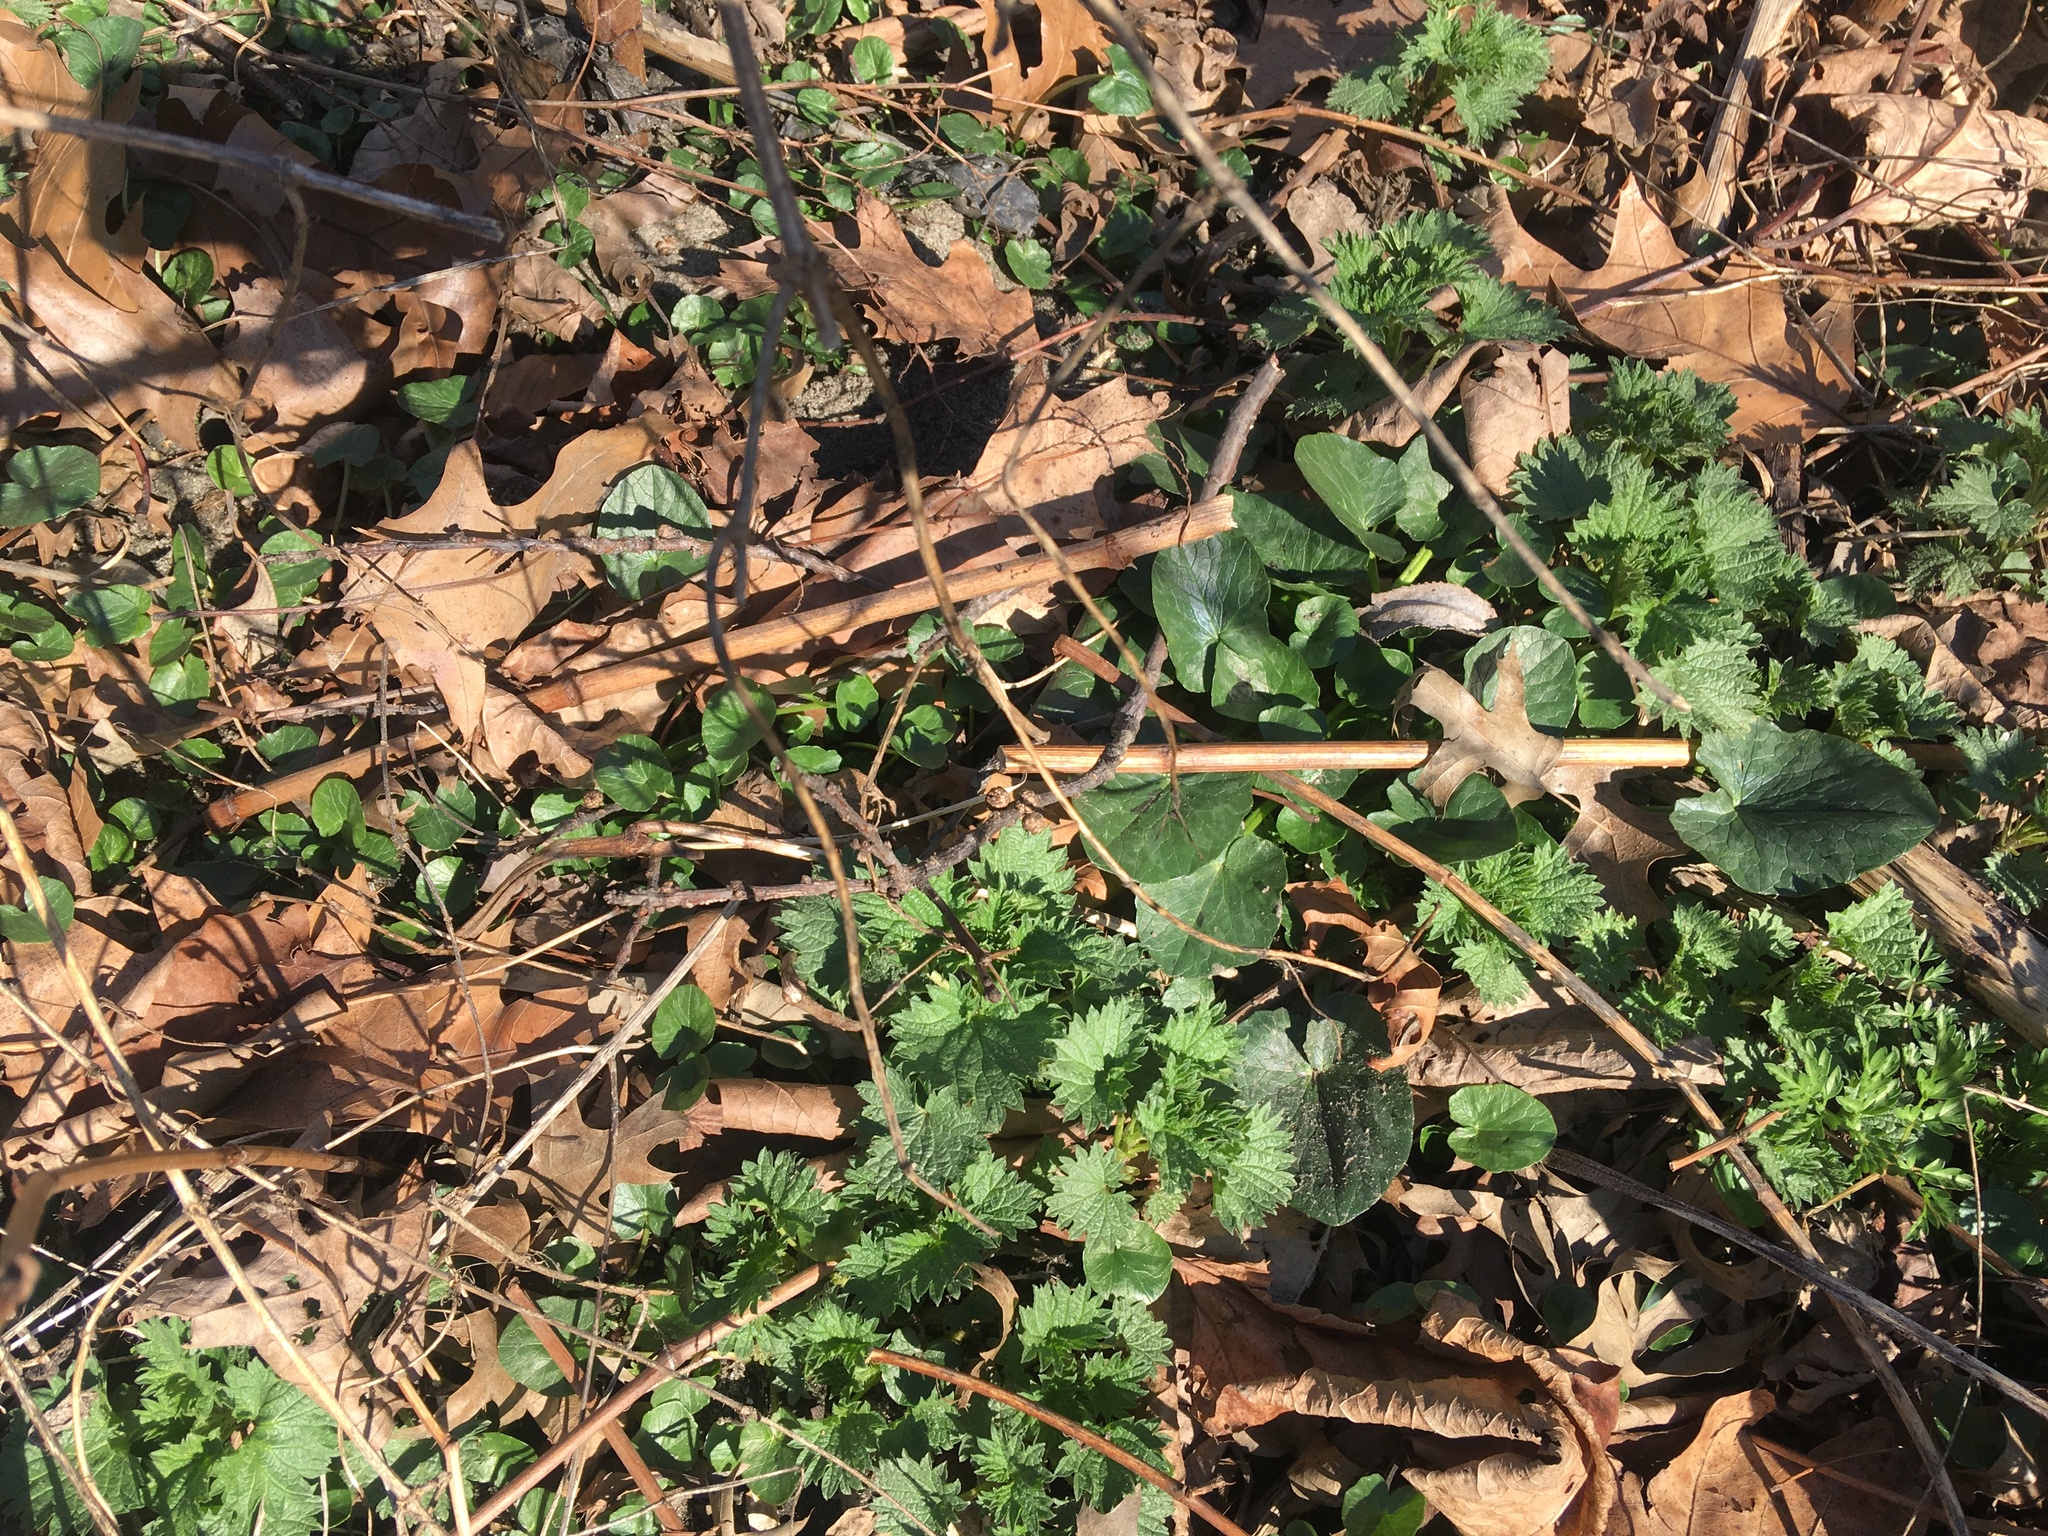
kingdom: Plantae
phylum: Tracheophyta
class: Magnoliopsida
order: Ranunculales
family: Ranunculaceae
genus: Ficaria
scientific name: Ficaria verna
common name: Lesser celandine
